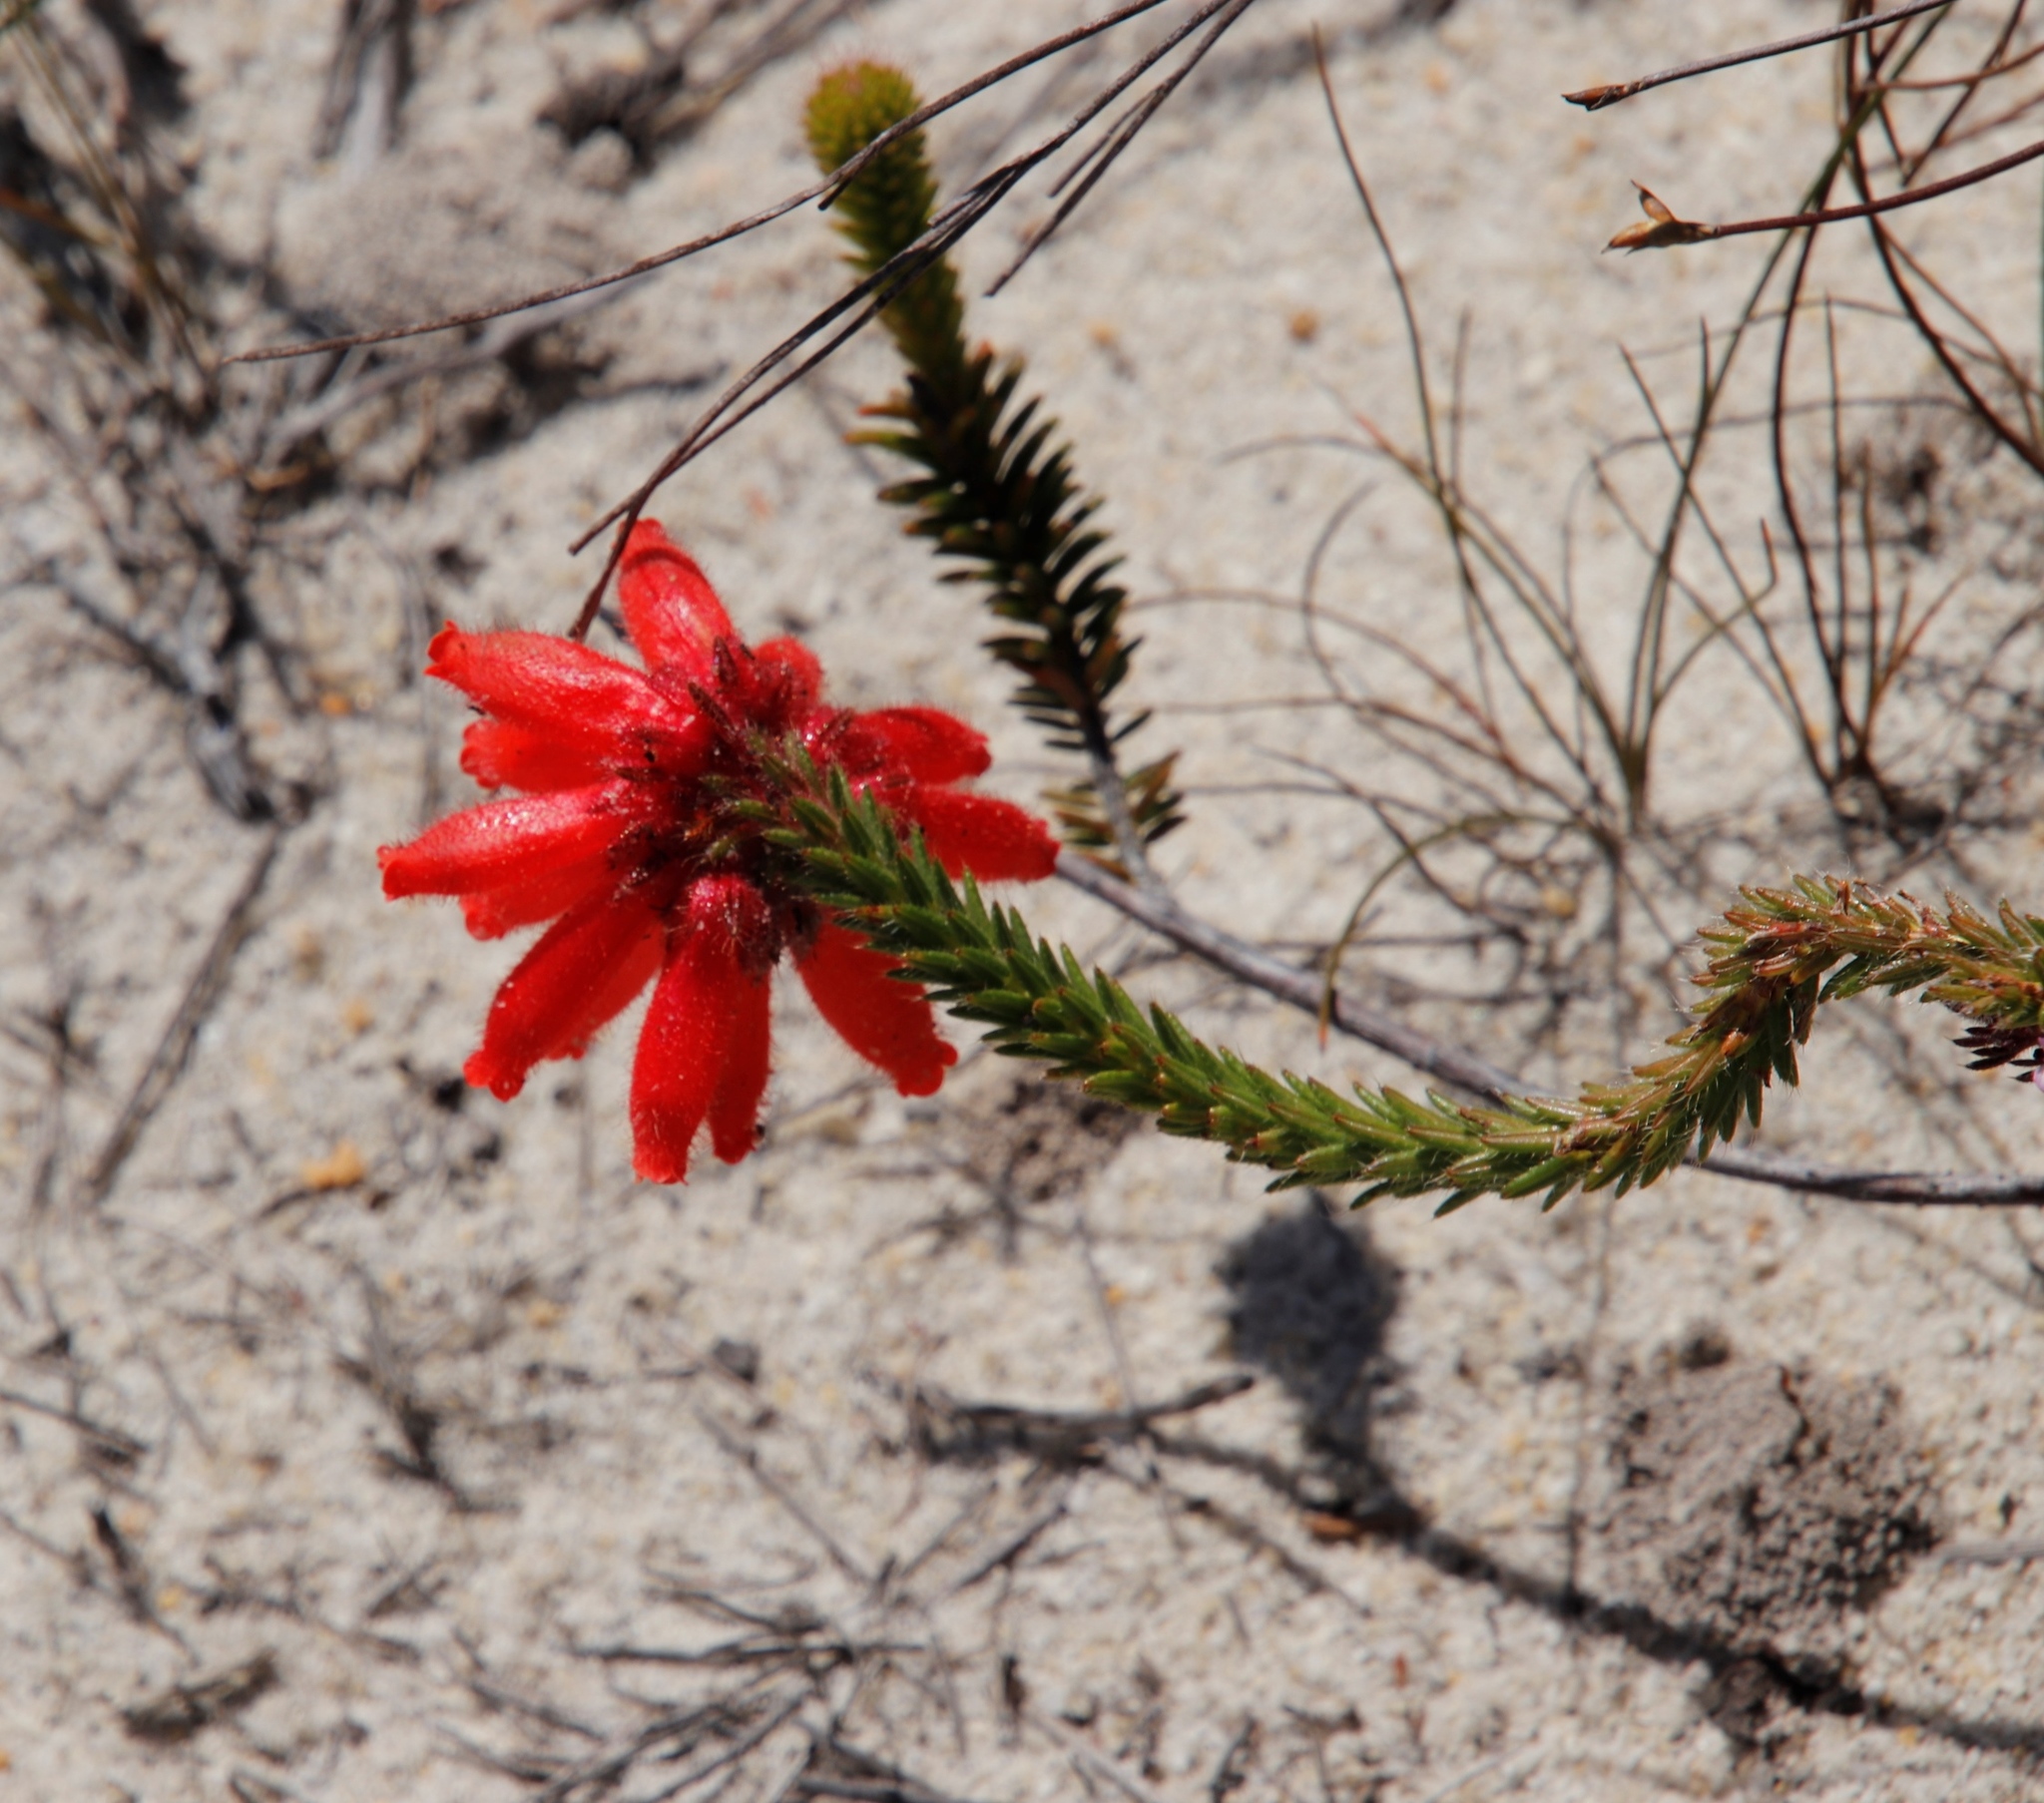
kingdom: Plantae
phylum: Tracheophyta
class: Magnoliopsida
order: Ericales
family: Ericaceae
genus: Erica
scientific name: Erica cerinthoides
